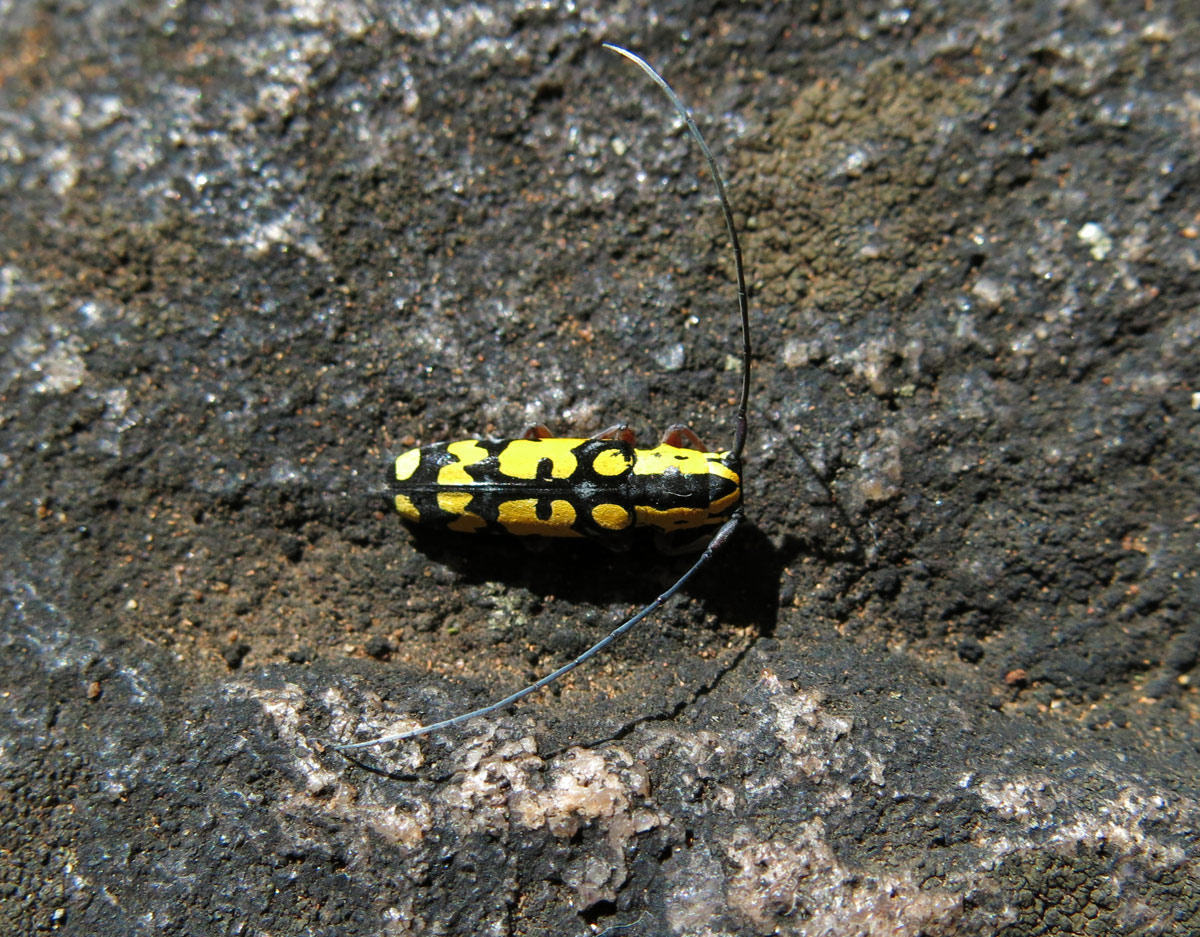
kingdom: Animalia
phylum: Arthropoda
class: Insecta
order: Coleoptera
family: Cerambycidae
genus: Tragiscoschema
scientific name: Tragiscoschema bertolonii
